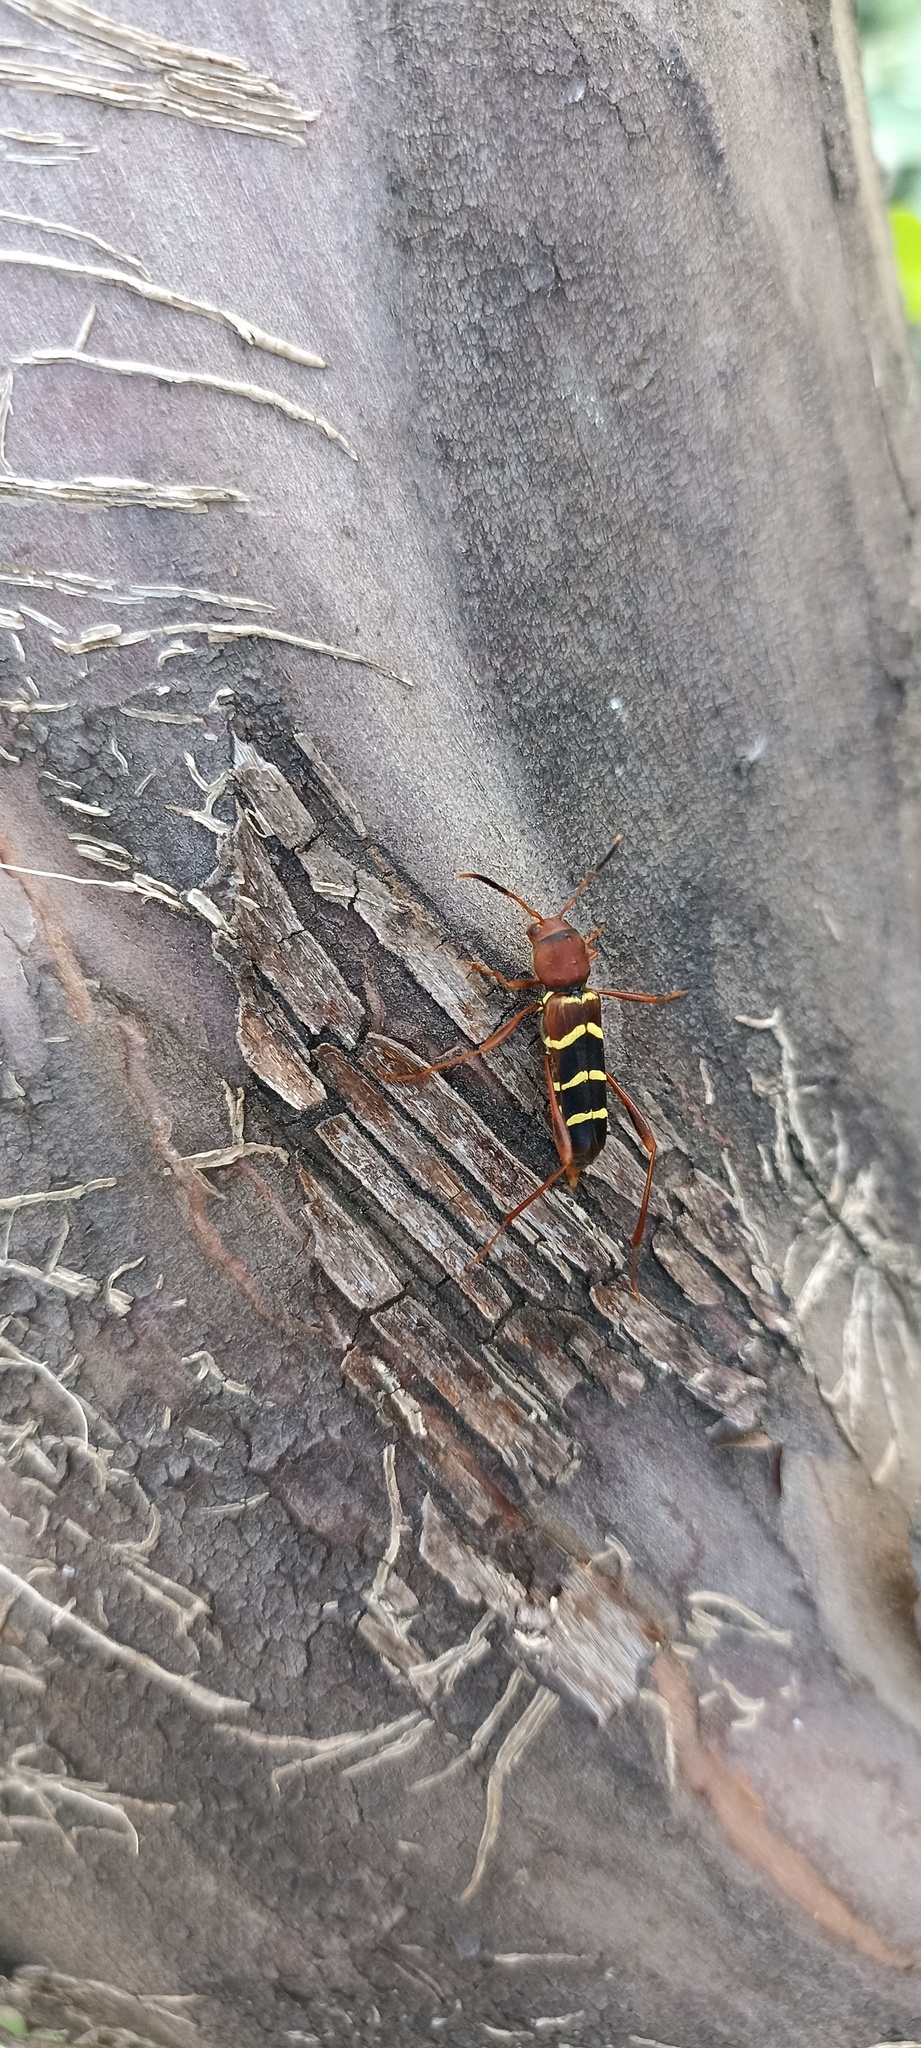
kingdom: Animalia
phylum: Arthropoda
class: Insecta
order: Coleoptera
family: Cerambycidae
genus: Neoclytus
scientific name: Neoclytus acuminatus
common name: Read-headed ash borer
